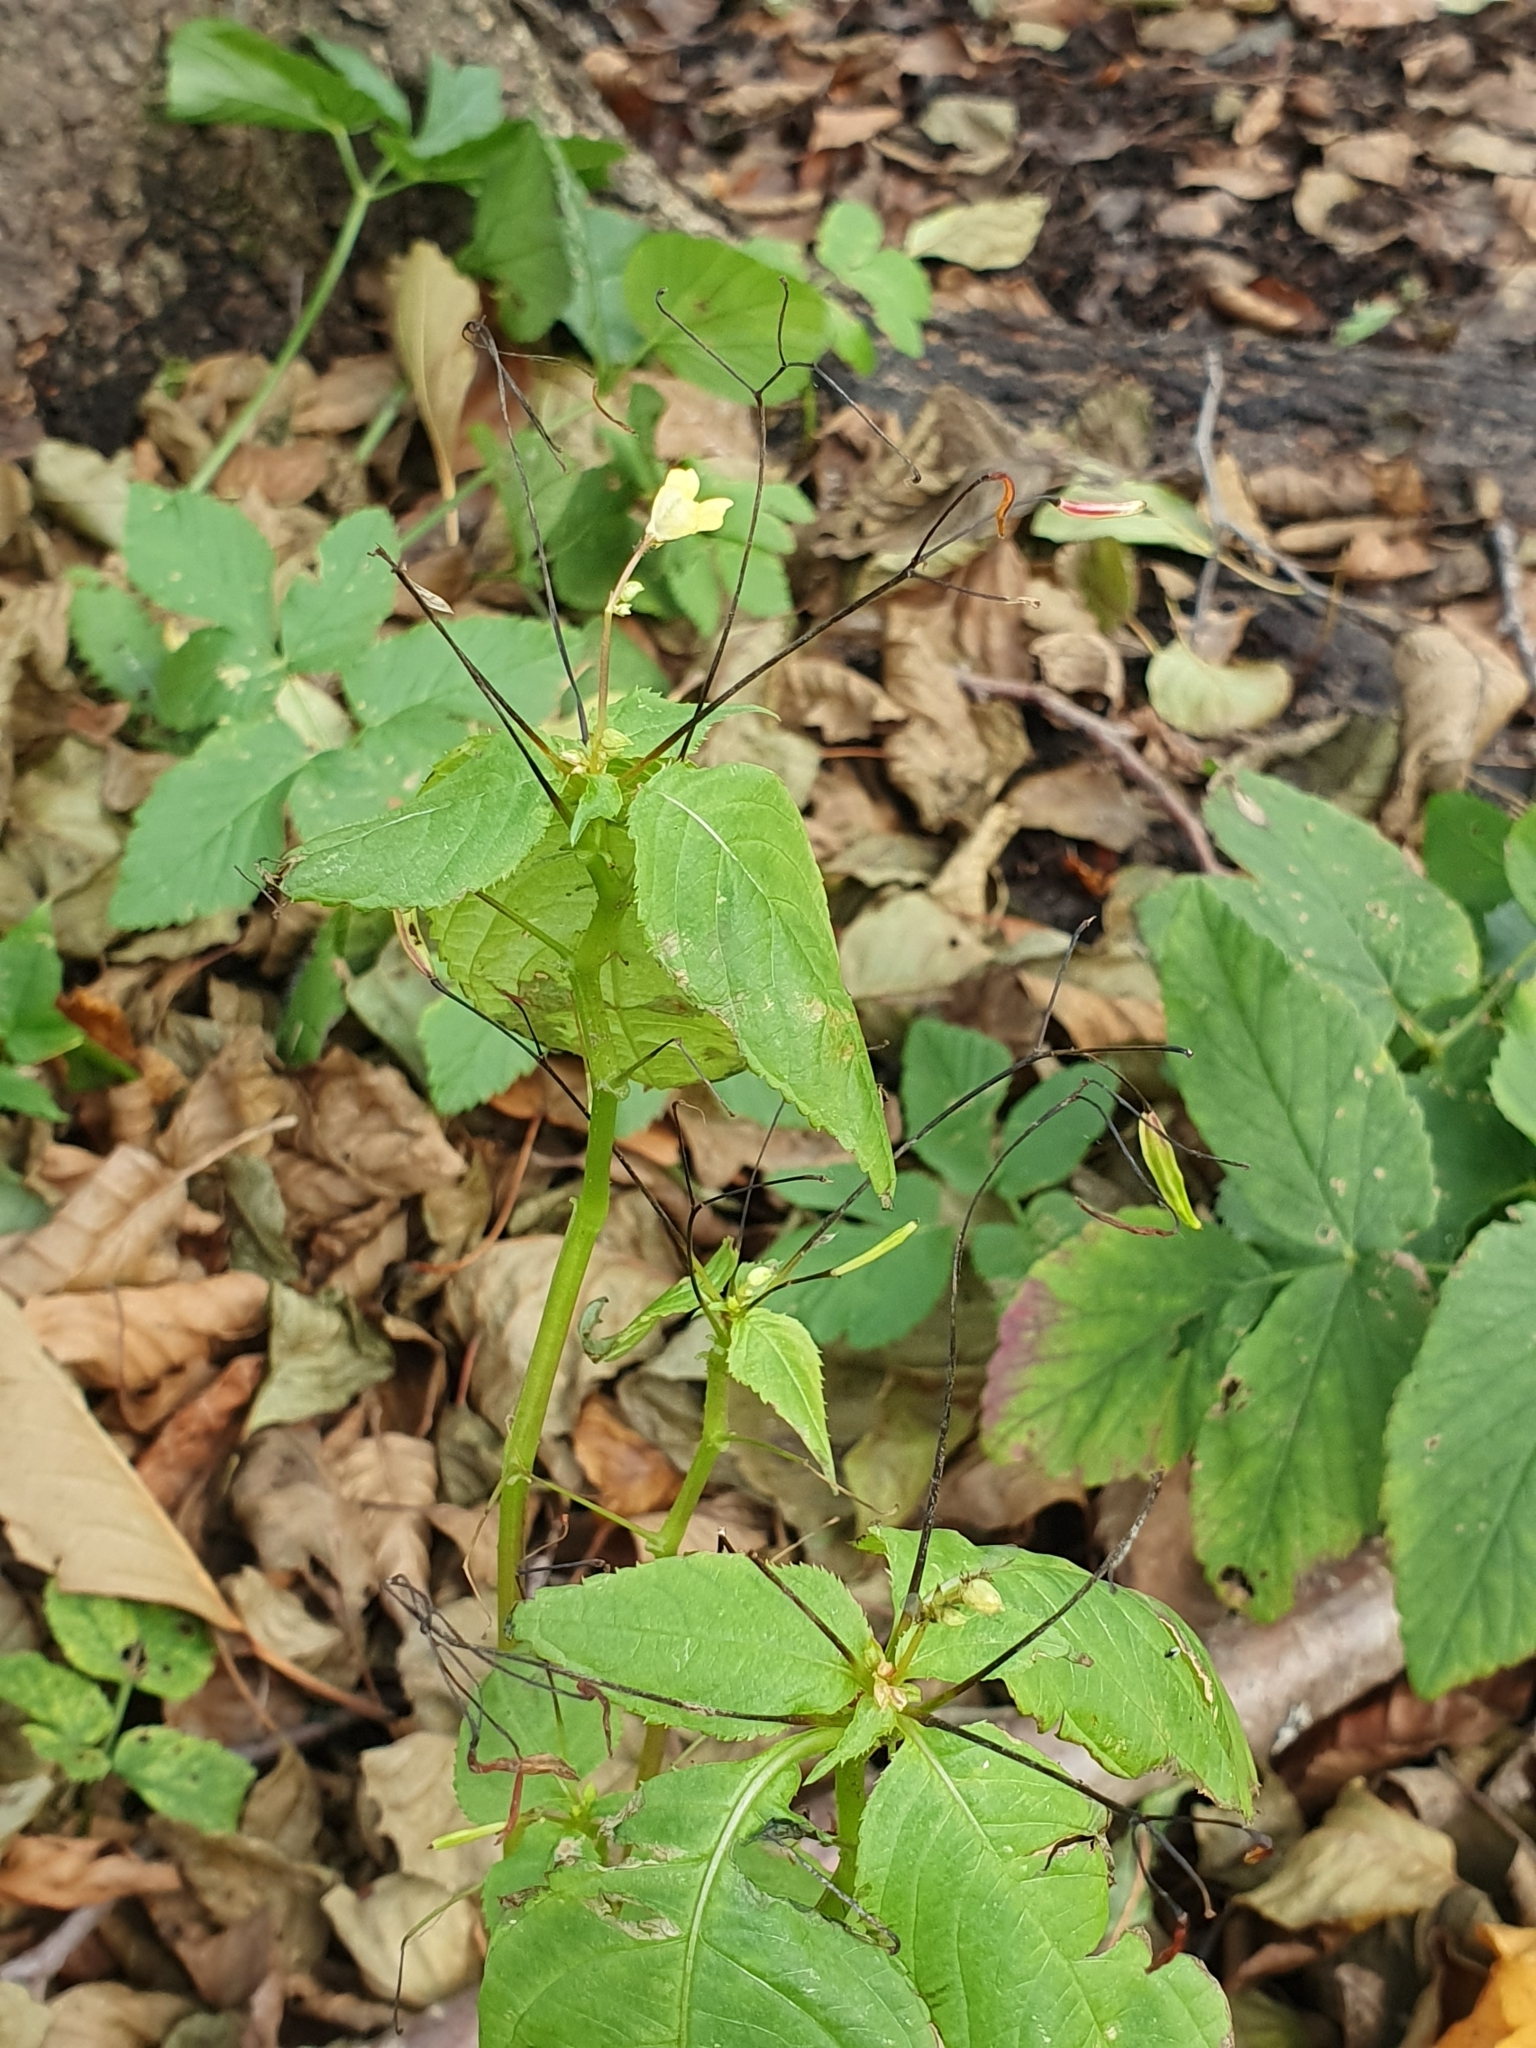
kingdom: Plantae
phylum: Tracheophyta
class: Magnoliopsida
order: Ericales
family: Balsaminaceae
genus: Impatiens
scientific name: Impatiens parviflora
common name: Small balsam
